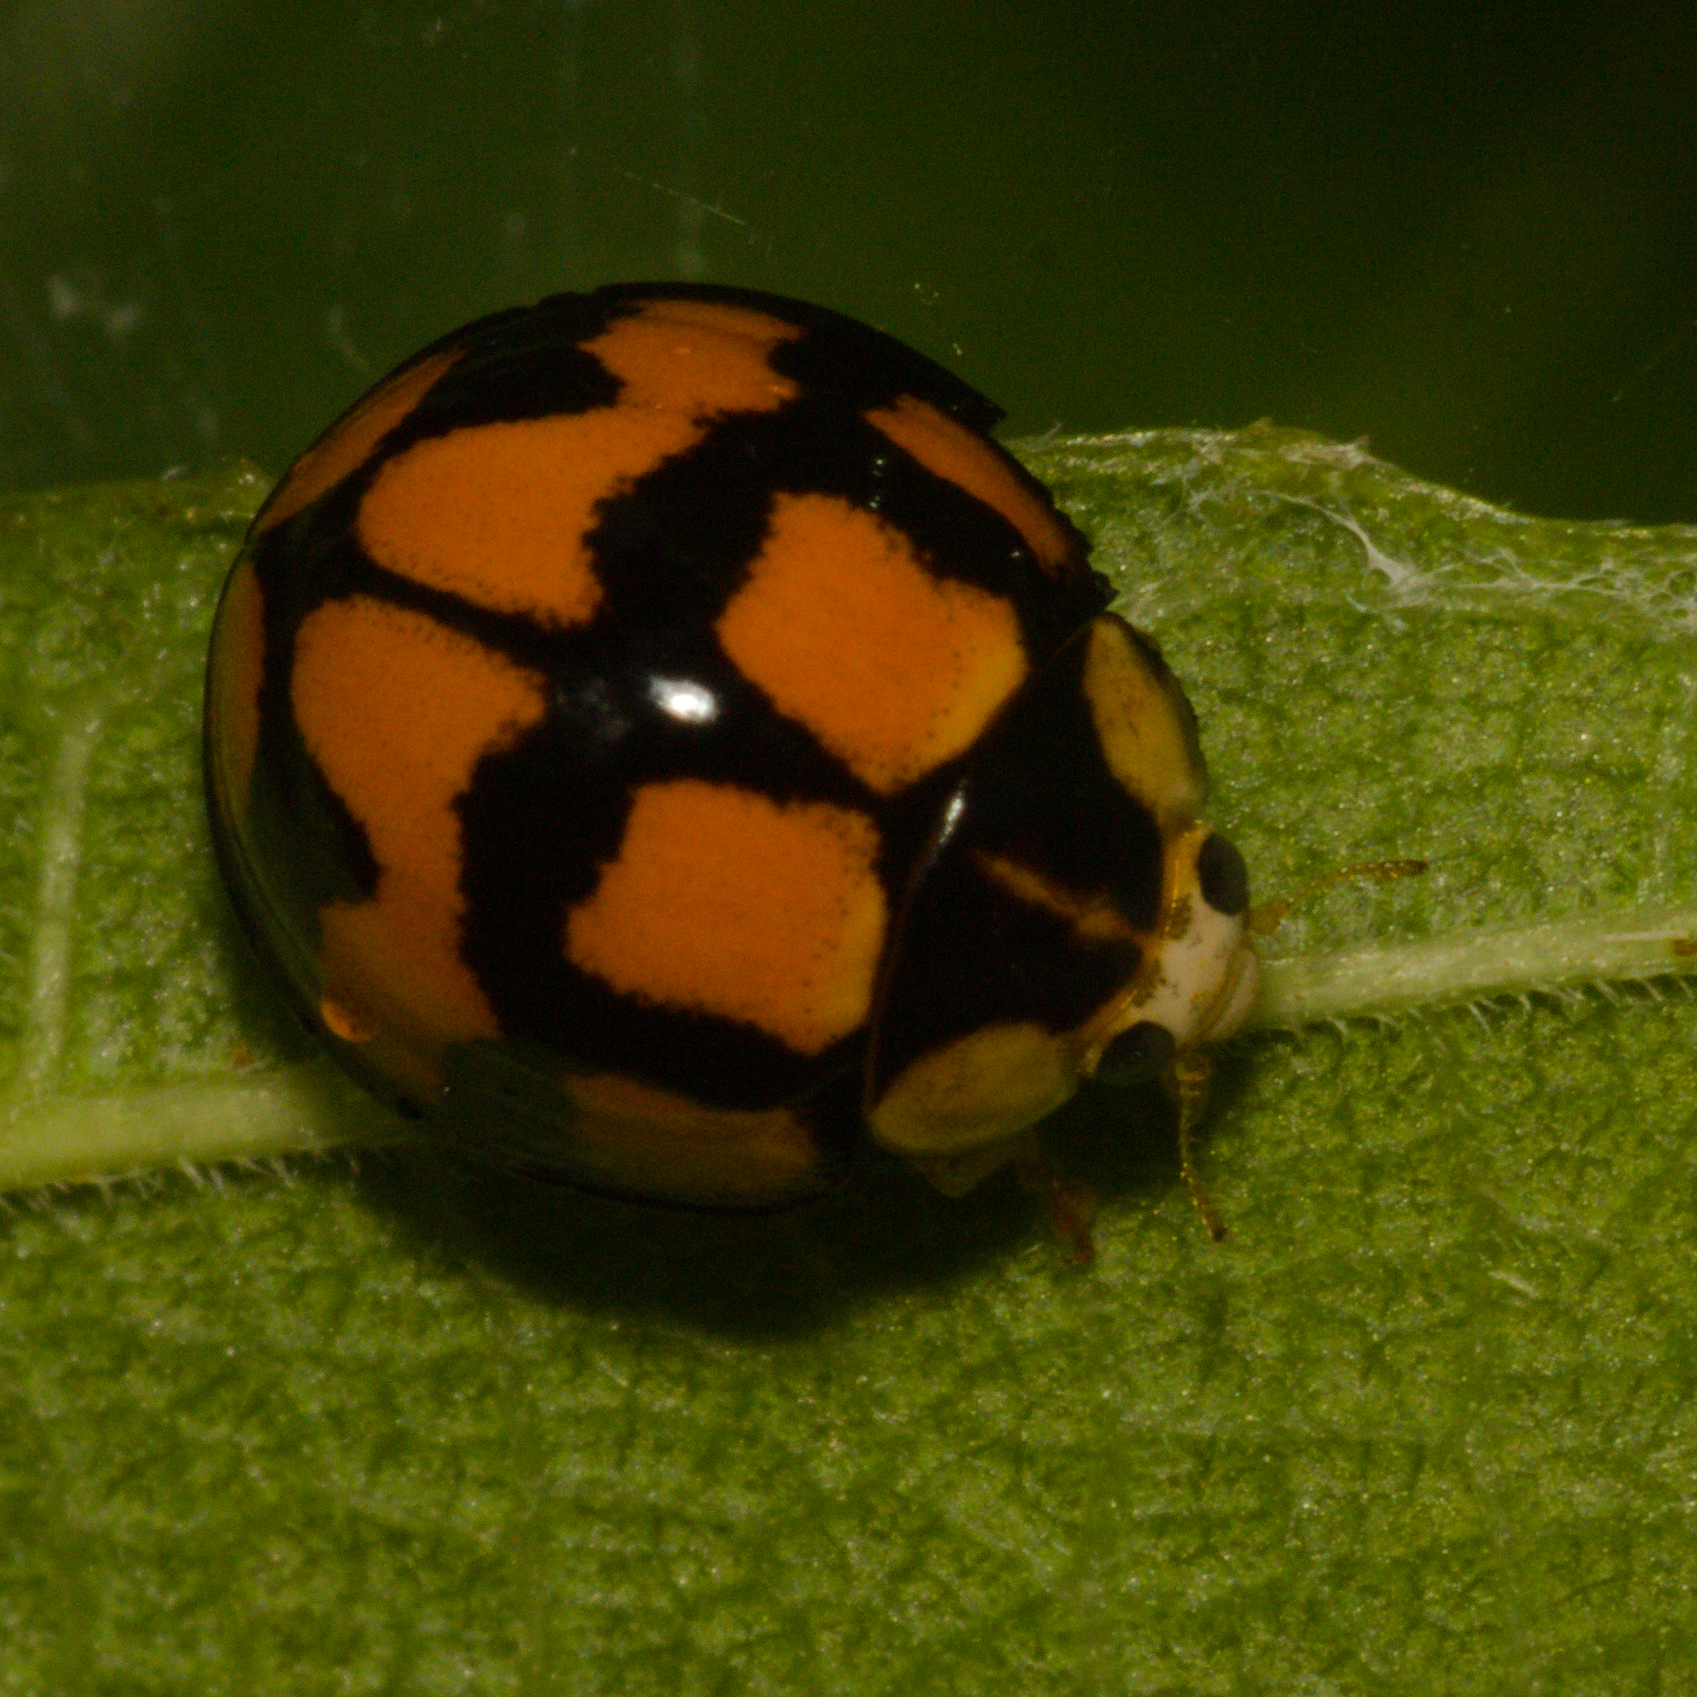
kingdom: Animalia
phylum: Arthropoda
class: Insecta
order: Coleoptera
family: Coccinellidae
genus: Coelophora
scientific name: Coelophora inaequalis
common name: Common australian lady beetle
